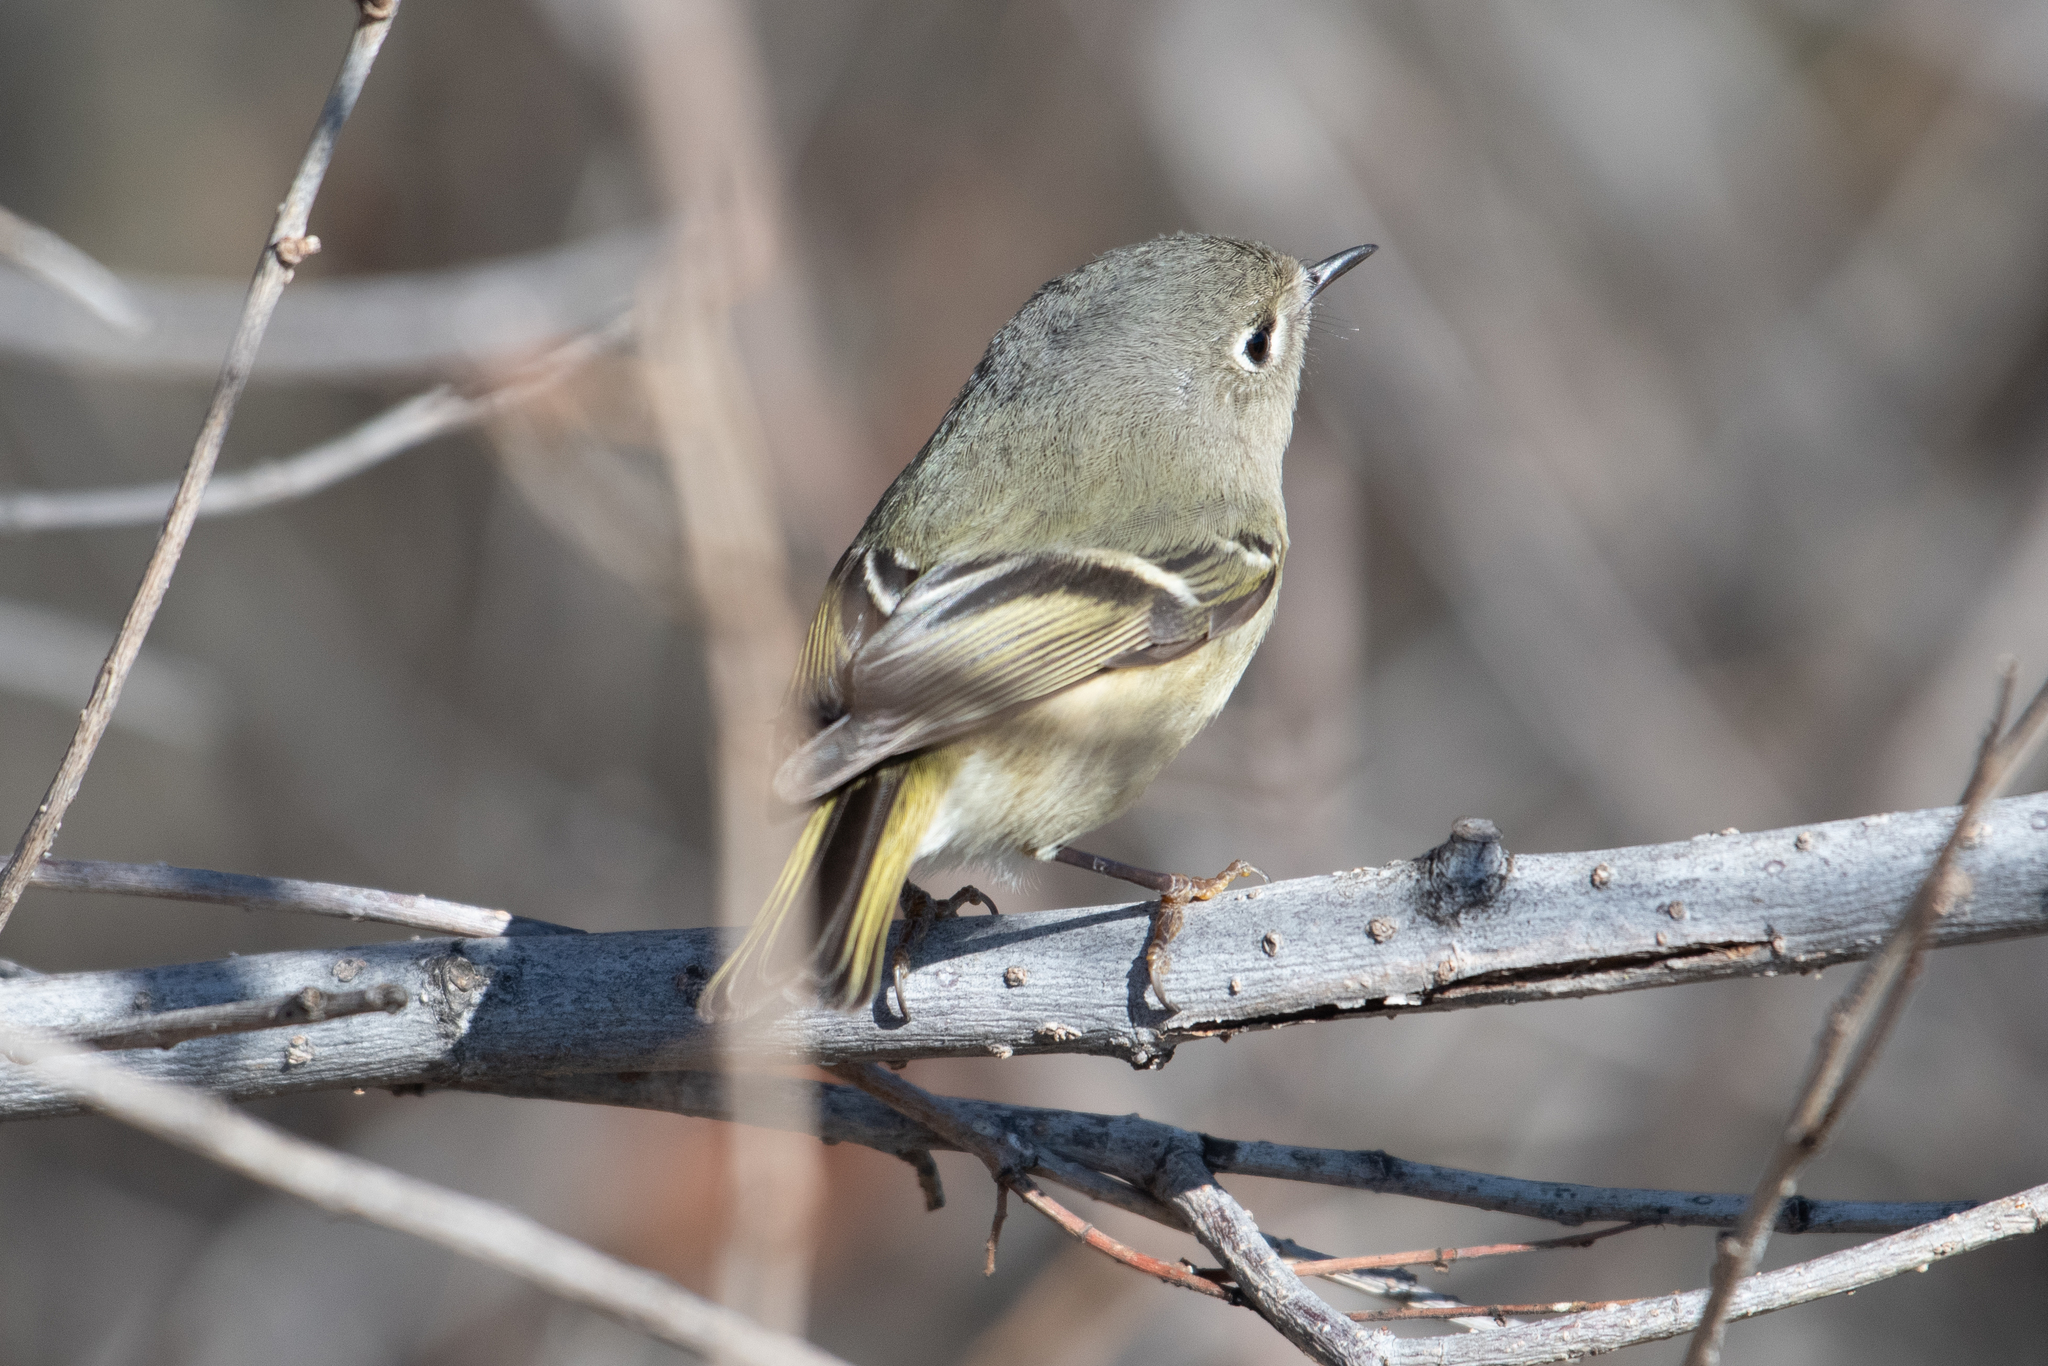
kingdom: Animalia
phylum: Chordata
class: Aves
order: Passeriformes
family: Regulidae
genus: Regulus
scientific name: Regulus calendula
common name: Ruby-crowned kinglet
